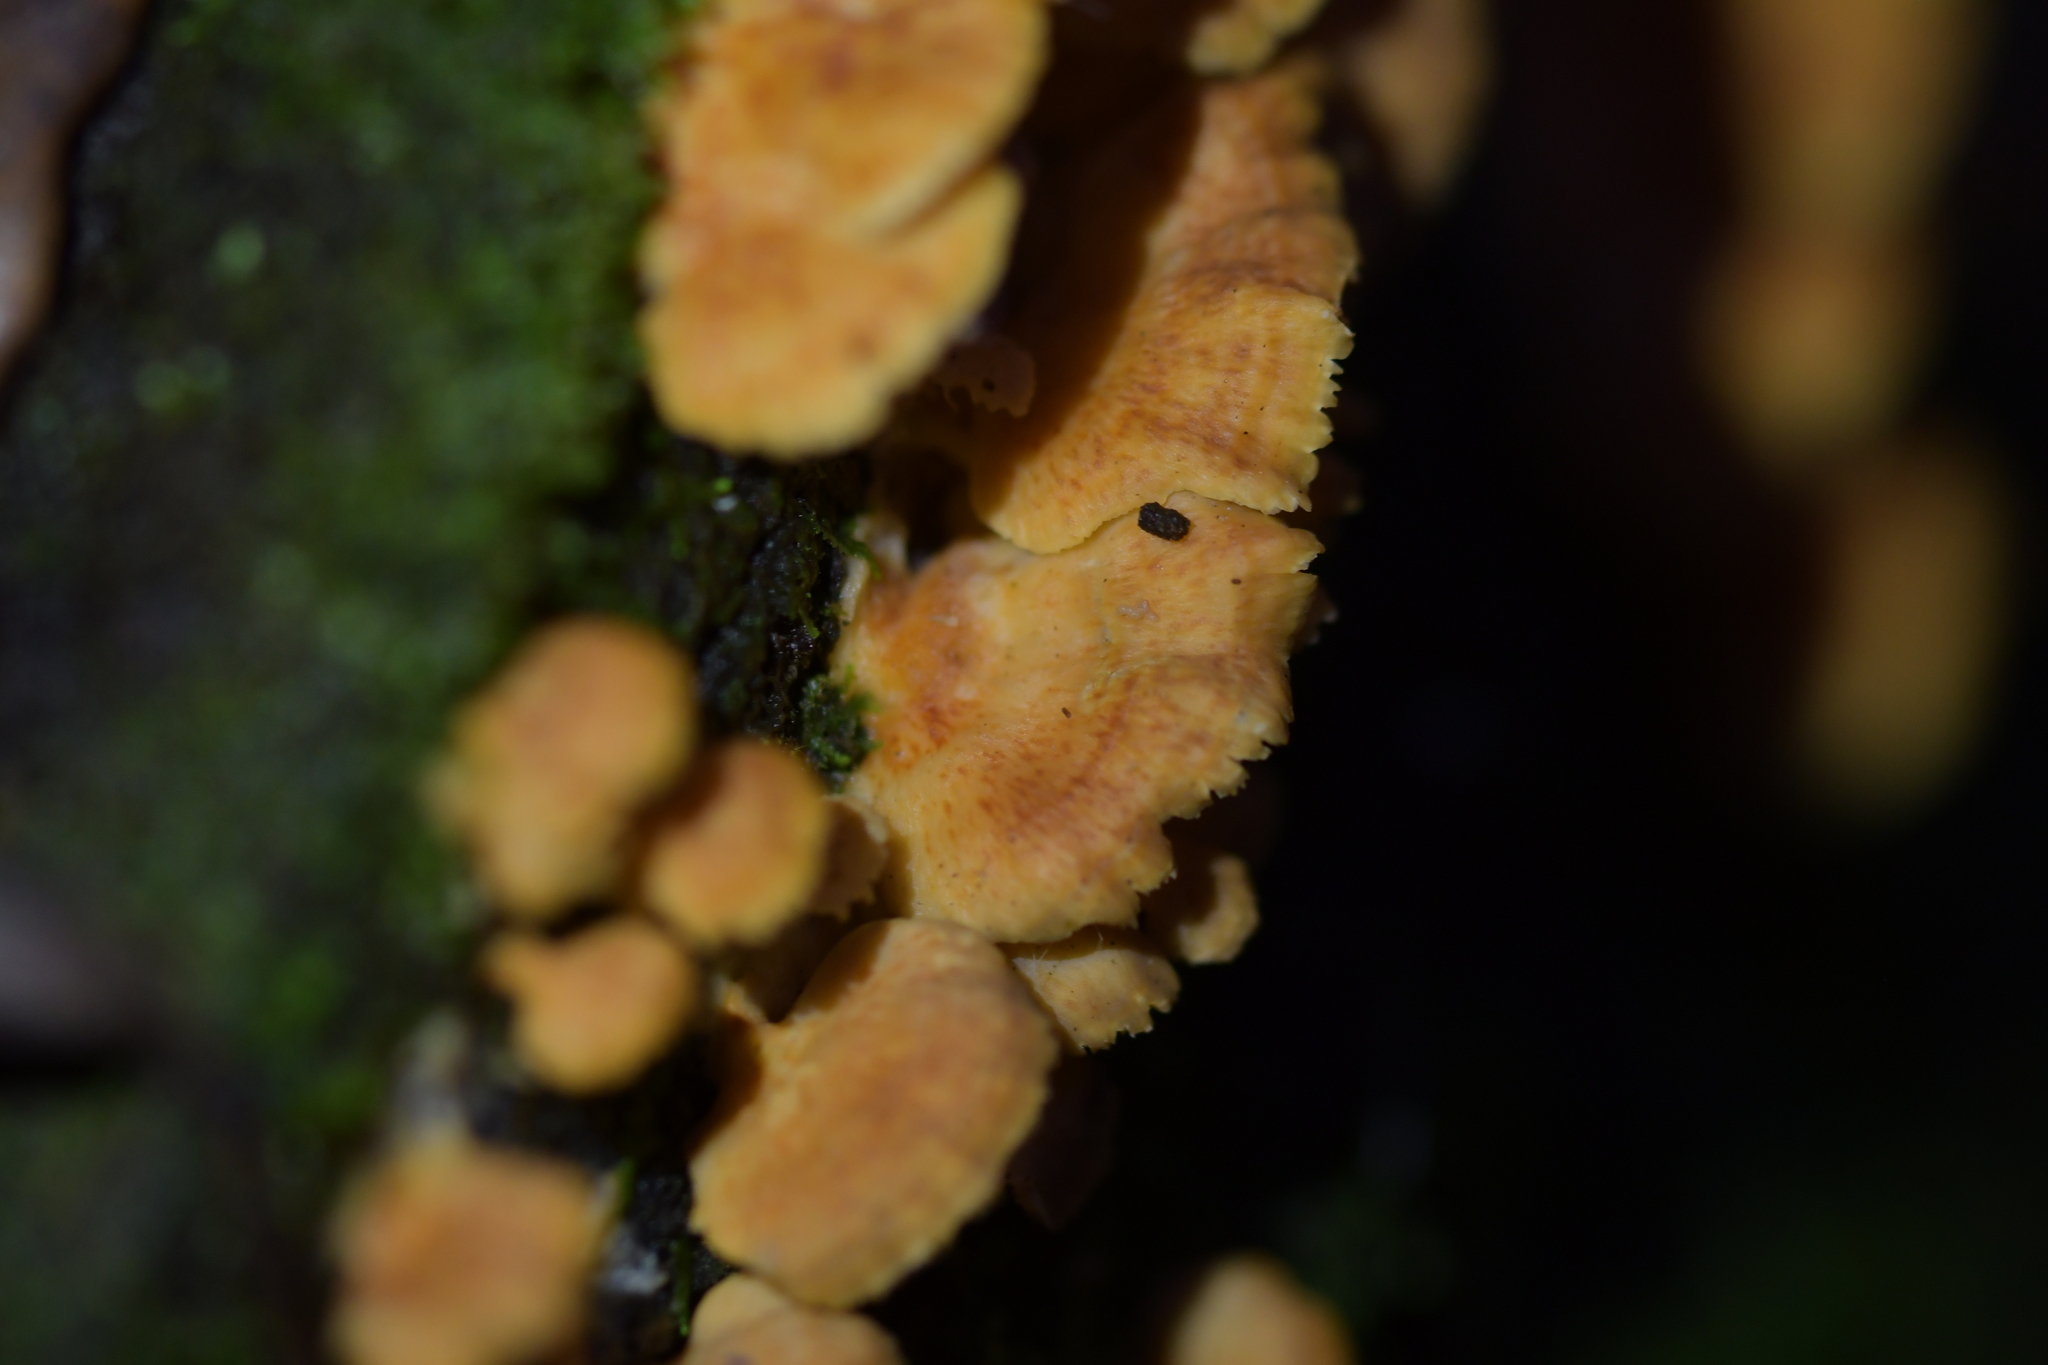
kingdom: Fungi
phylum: Basidiomycota
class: Agaricomycetes
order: Polyporales
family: Cerrenaceae
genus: Cerrena
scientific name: Cerrena zonata
